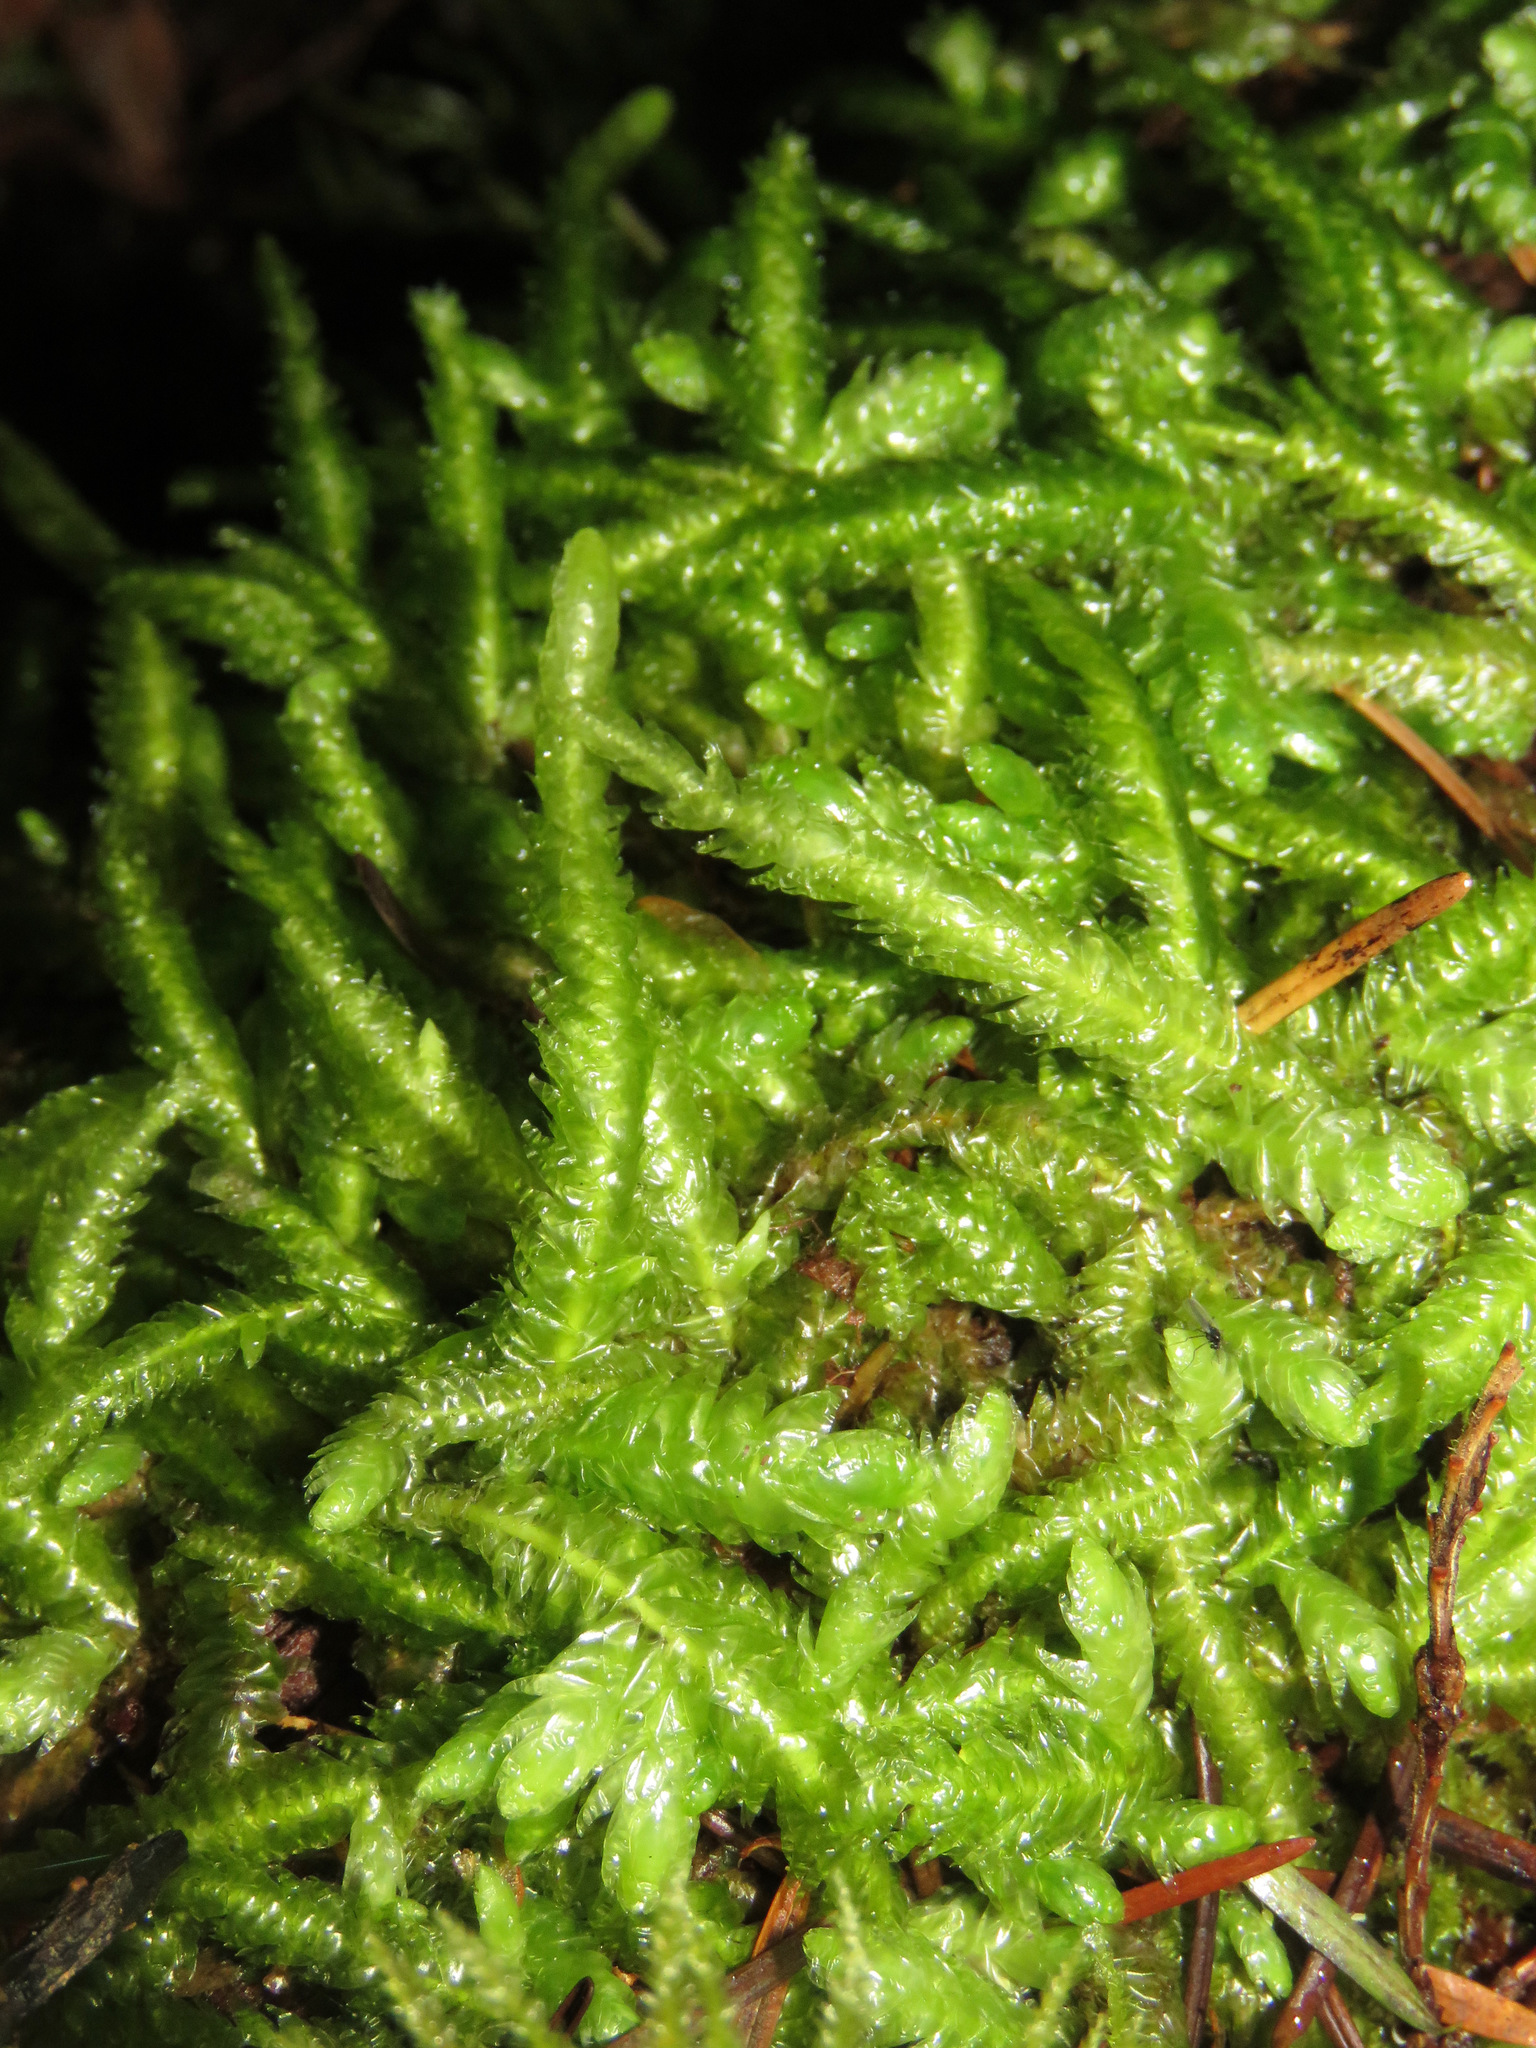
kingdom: Plantae
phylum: Bryophyta
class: Bryopsida
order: Hypnales
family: Plagiotheciaceae
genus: Plagiothecium
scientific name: Plagiothecium undulatum
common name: Waved silk-moss
